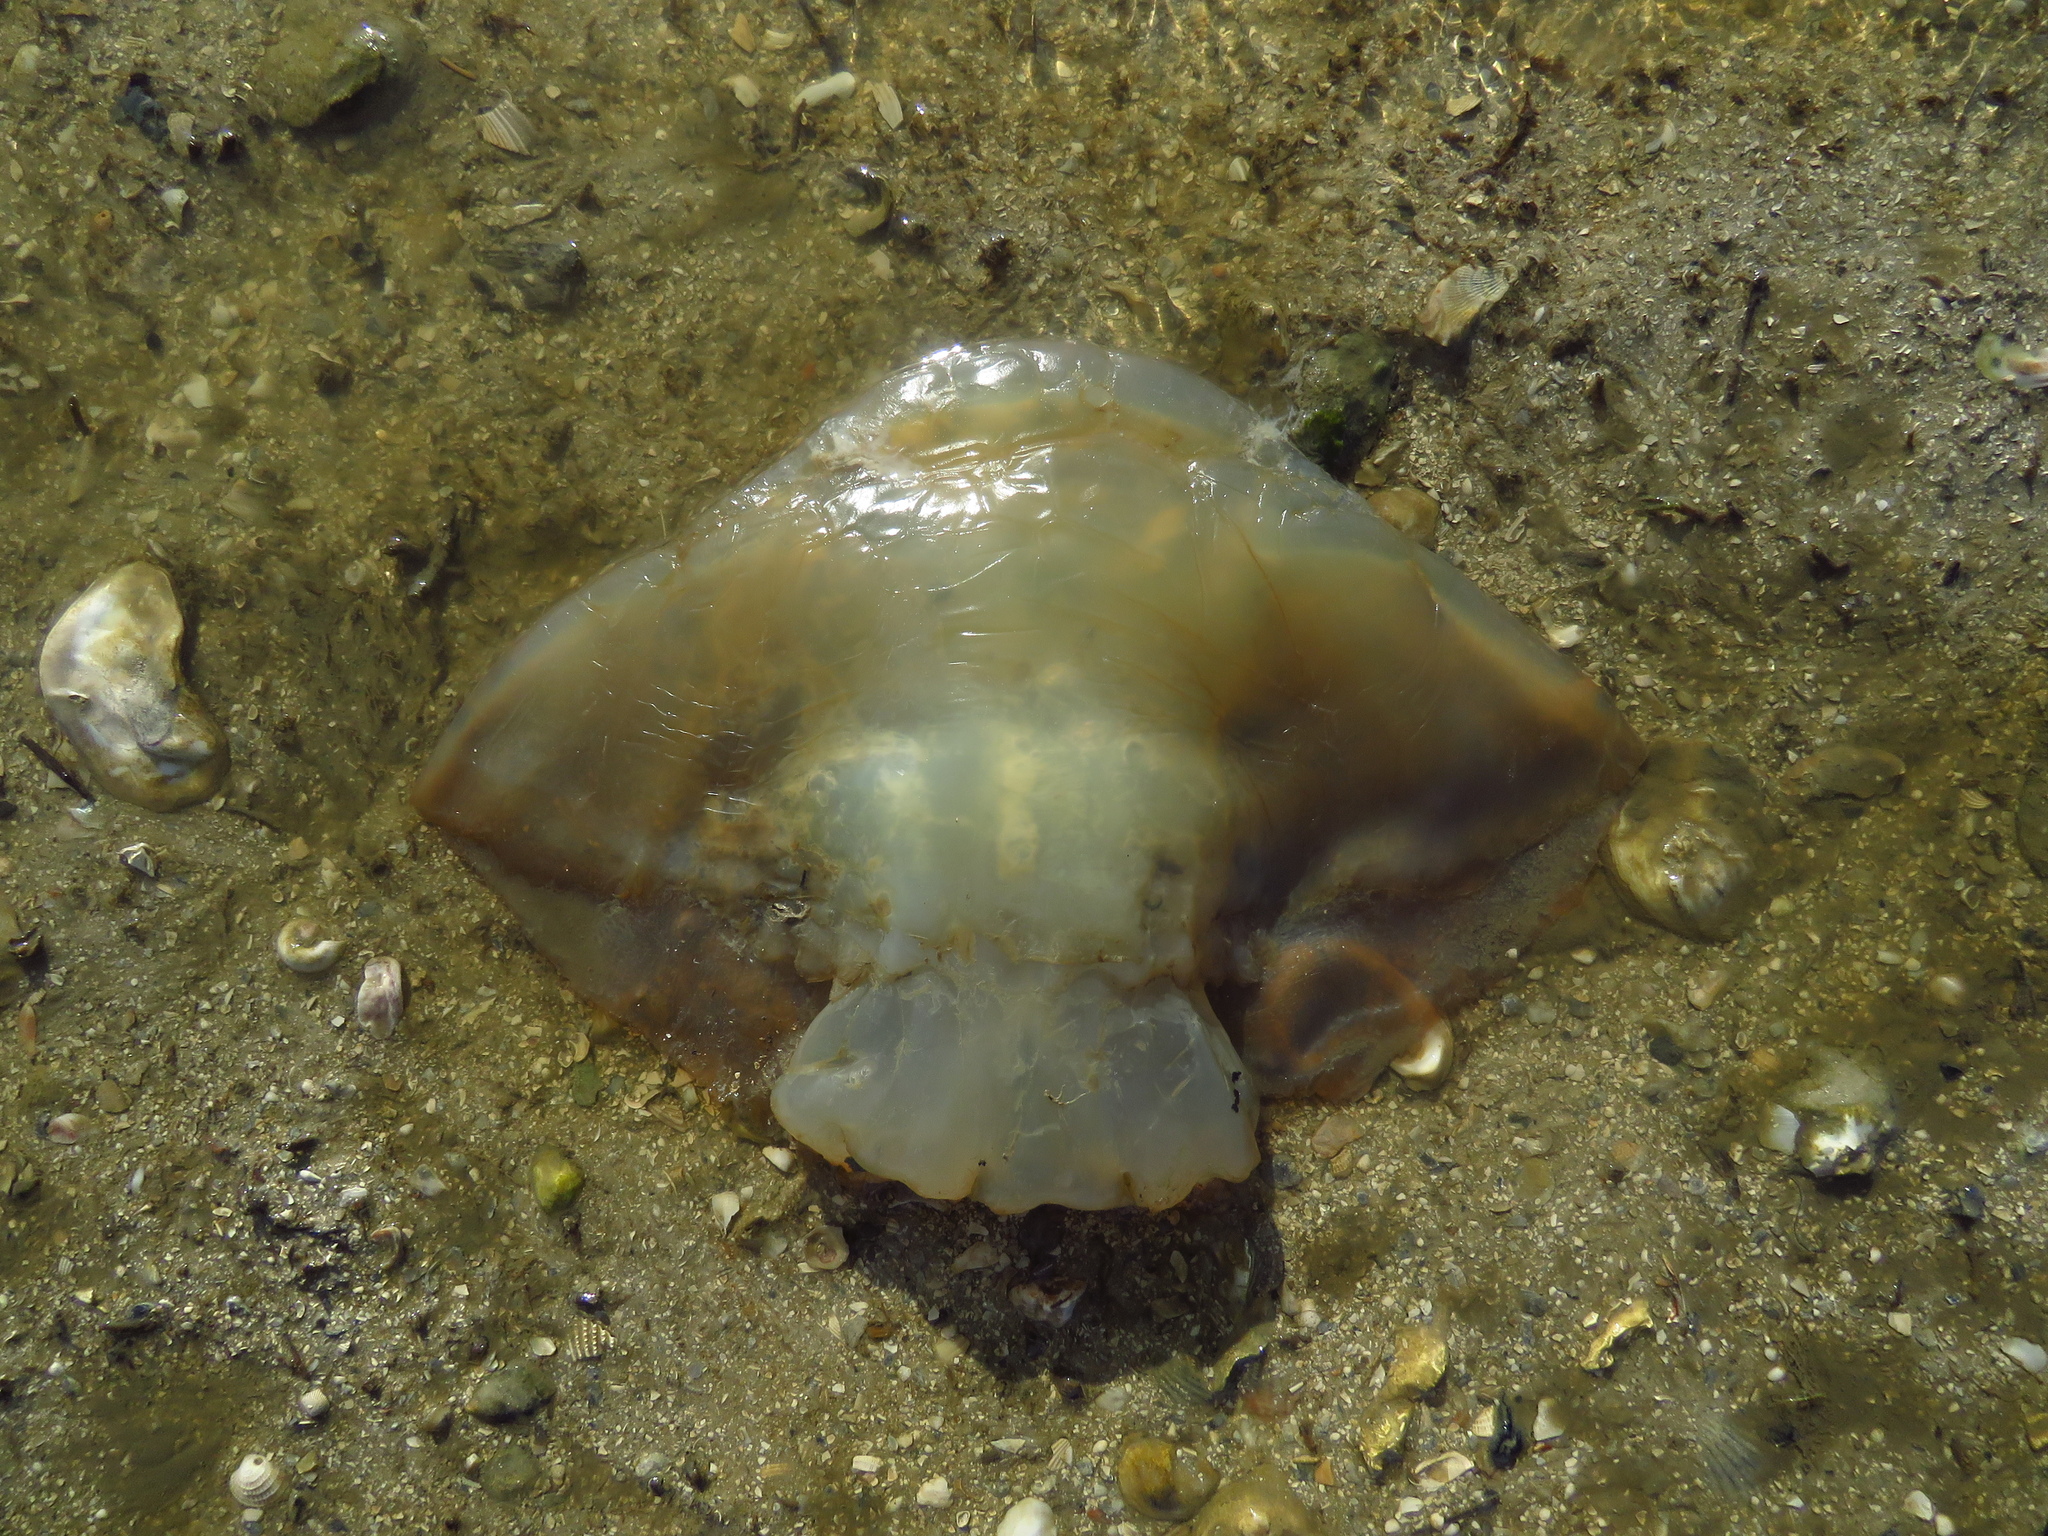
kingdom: Animalia
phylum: Cnidaria
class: Scyphozoa
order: Rhizostomeae
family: Stomolophidae
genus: Stomolophus
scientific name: Stomolophus meleagris
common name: Cabbagehead
